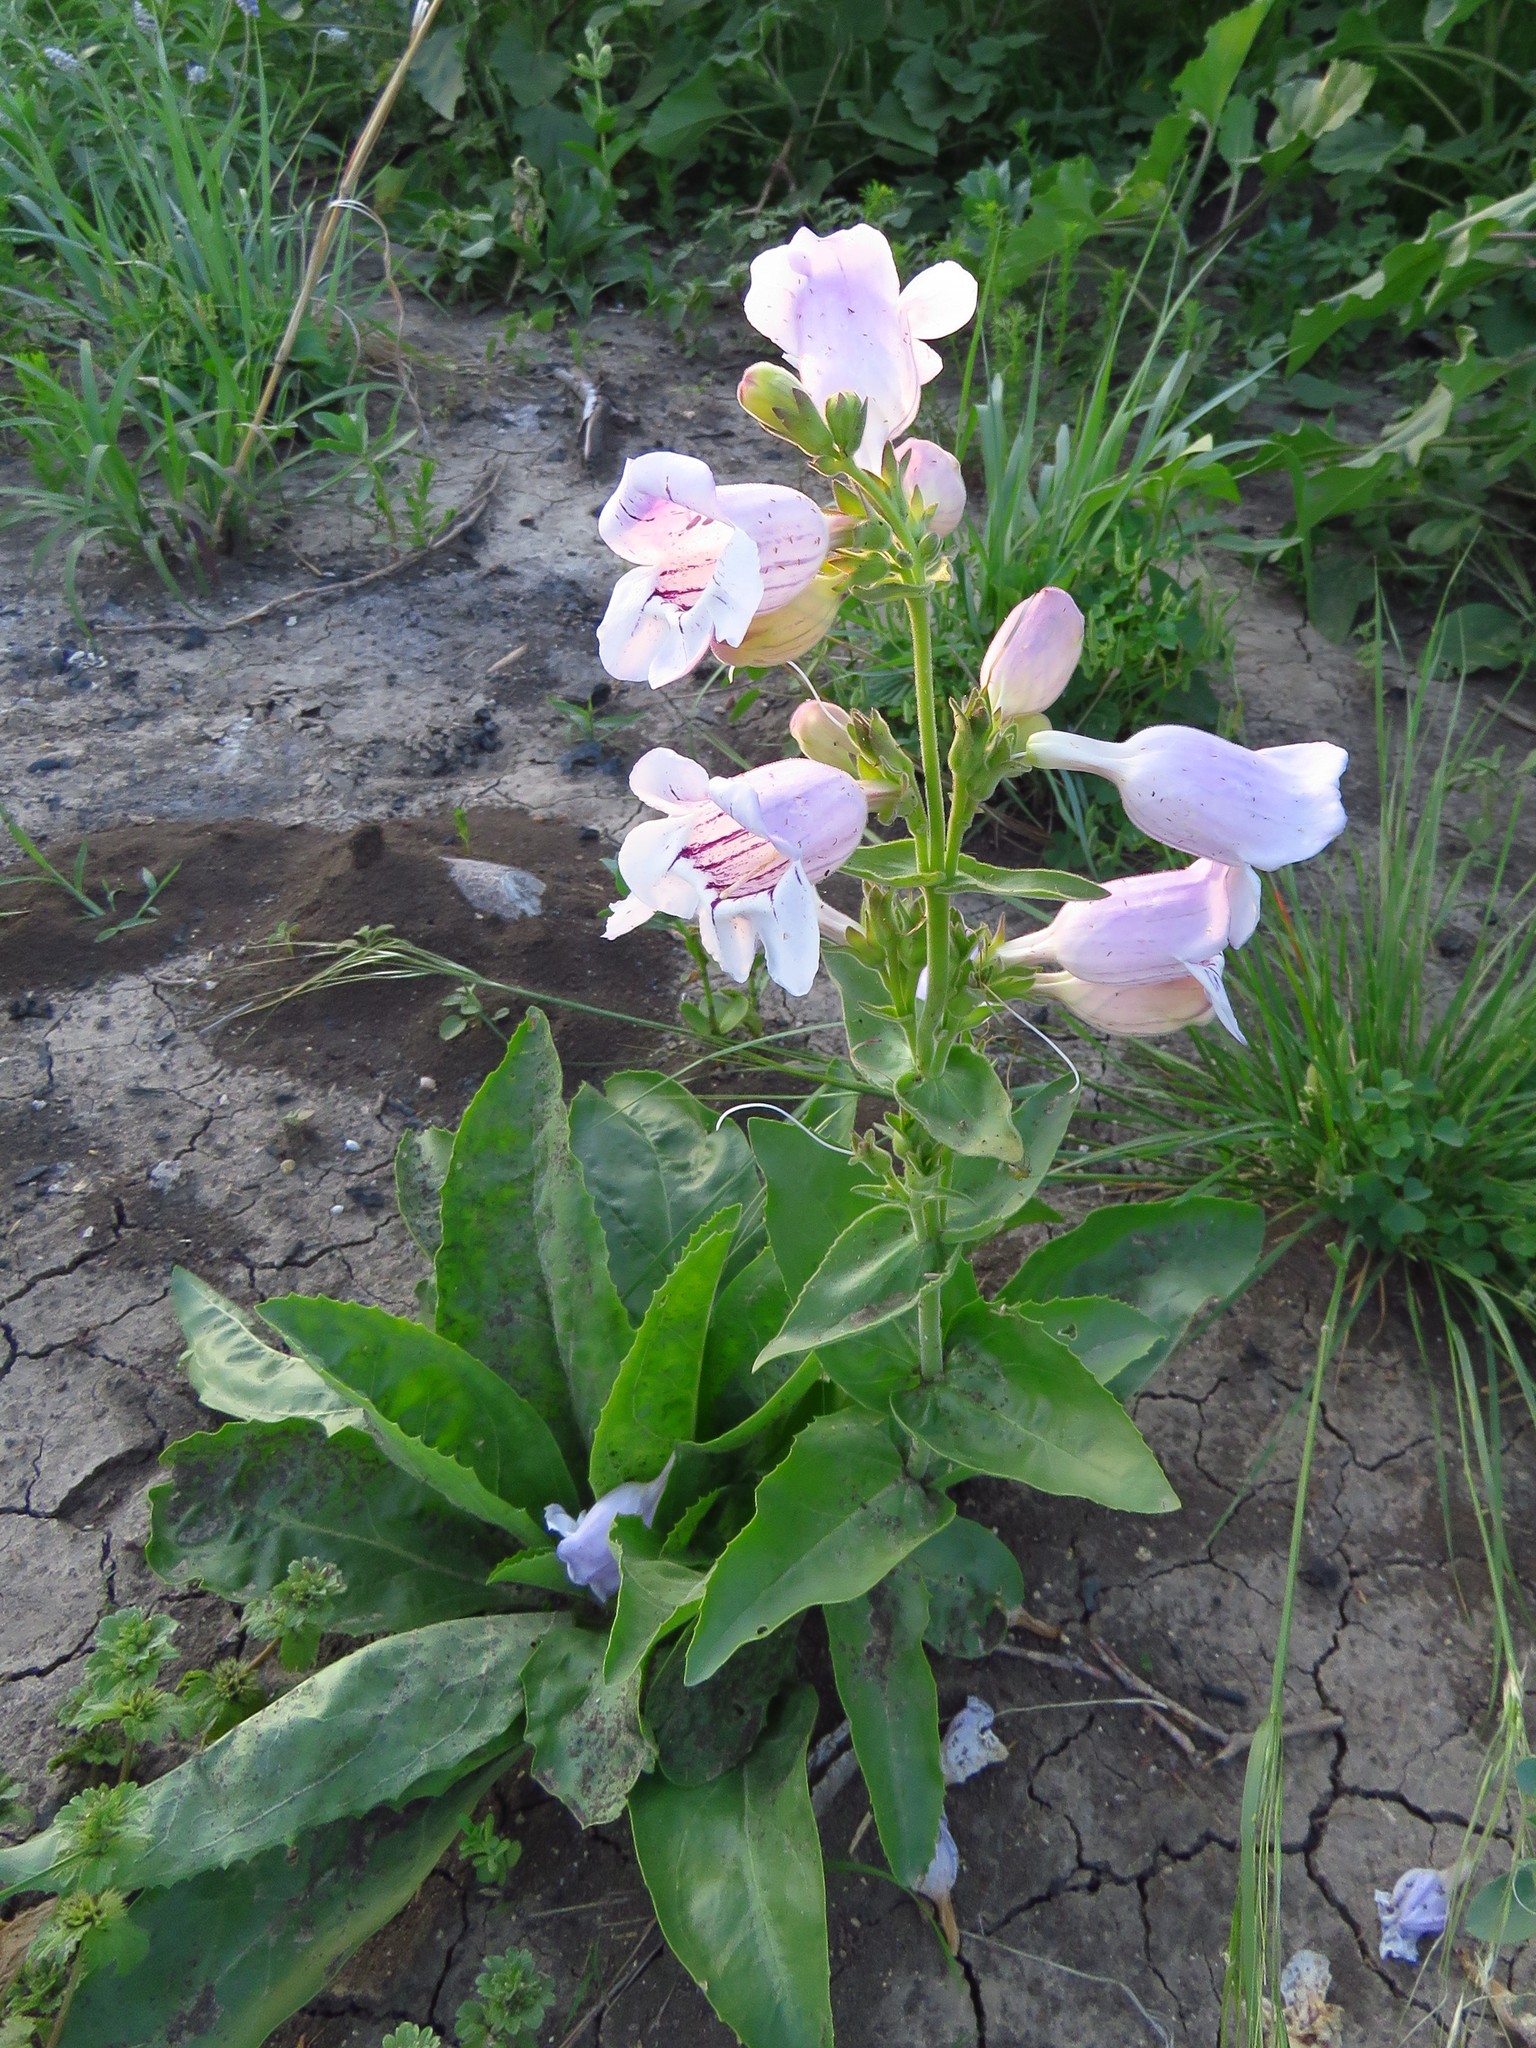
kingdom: Plantae
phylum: Tracheophyta
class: Magnoliopsida
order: Lamiales
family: Plantaginaceae
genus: Penstemon
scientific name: Penstemon cobaea
